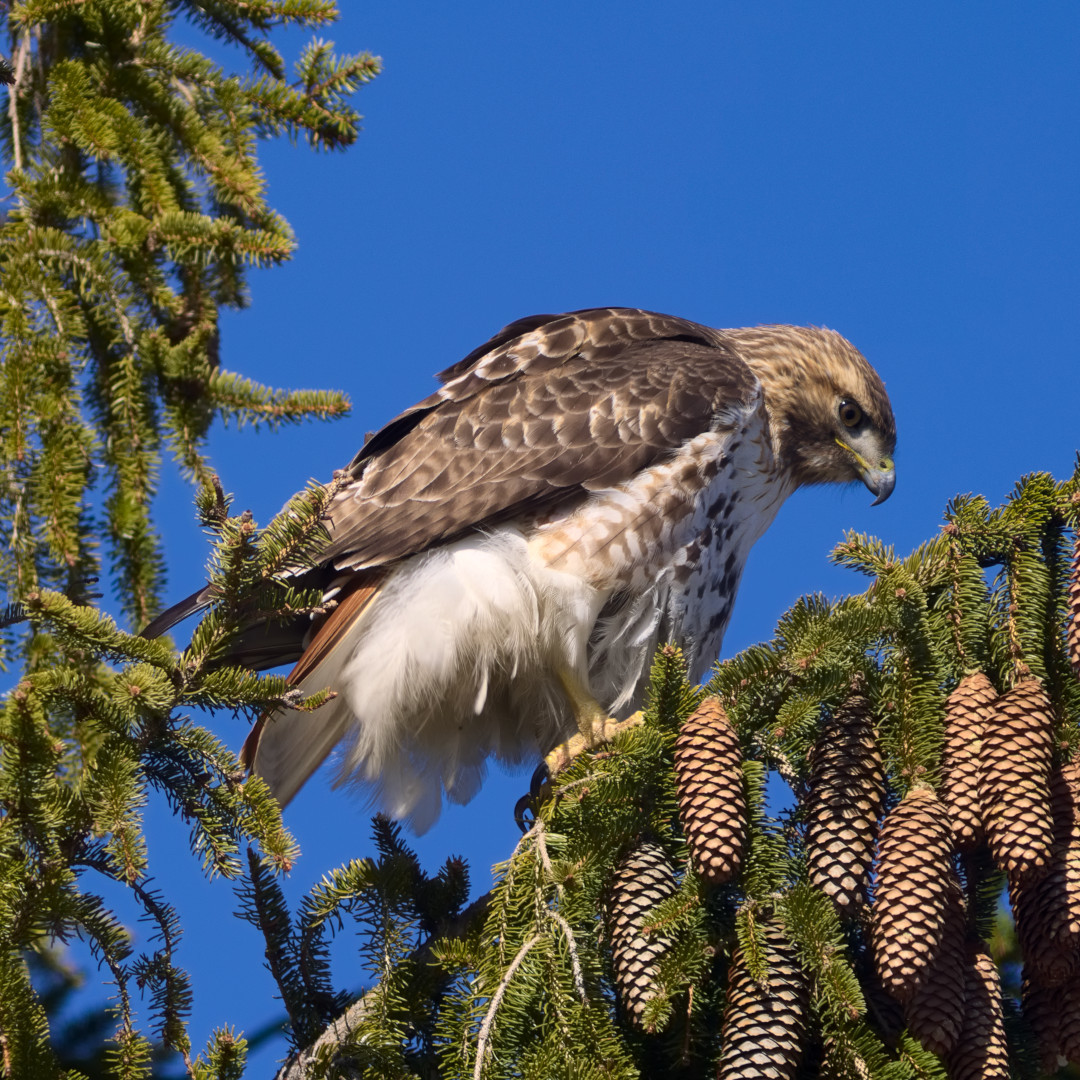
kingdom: Animalia
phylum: Chordata
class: Aves
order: Accipitriformes
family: Accipitridae
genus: Buteo
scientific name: Buteo jamaicensis
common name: Red-tailed hawk
